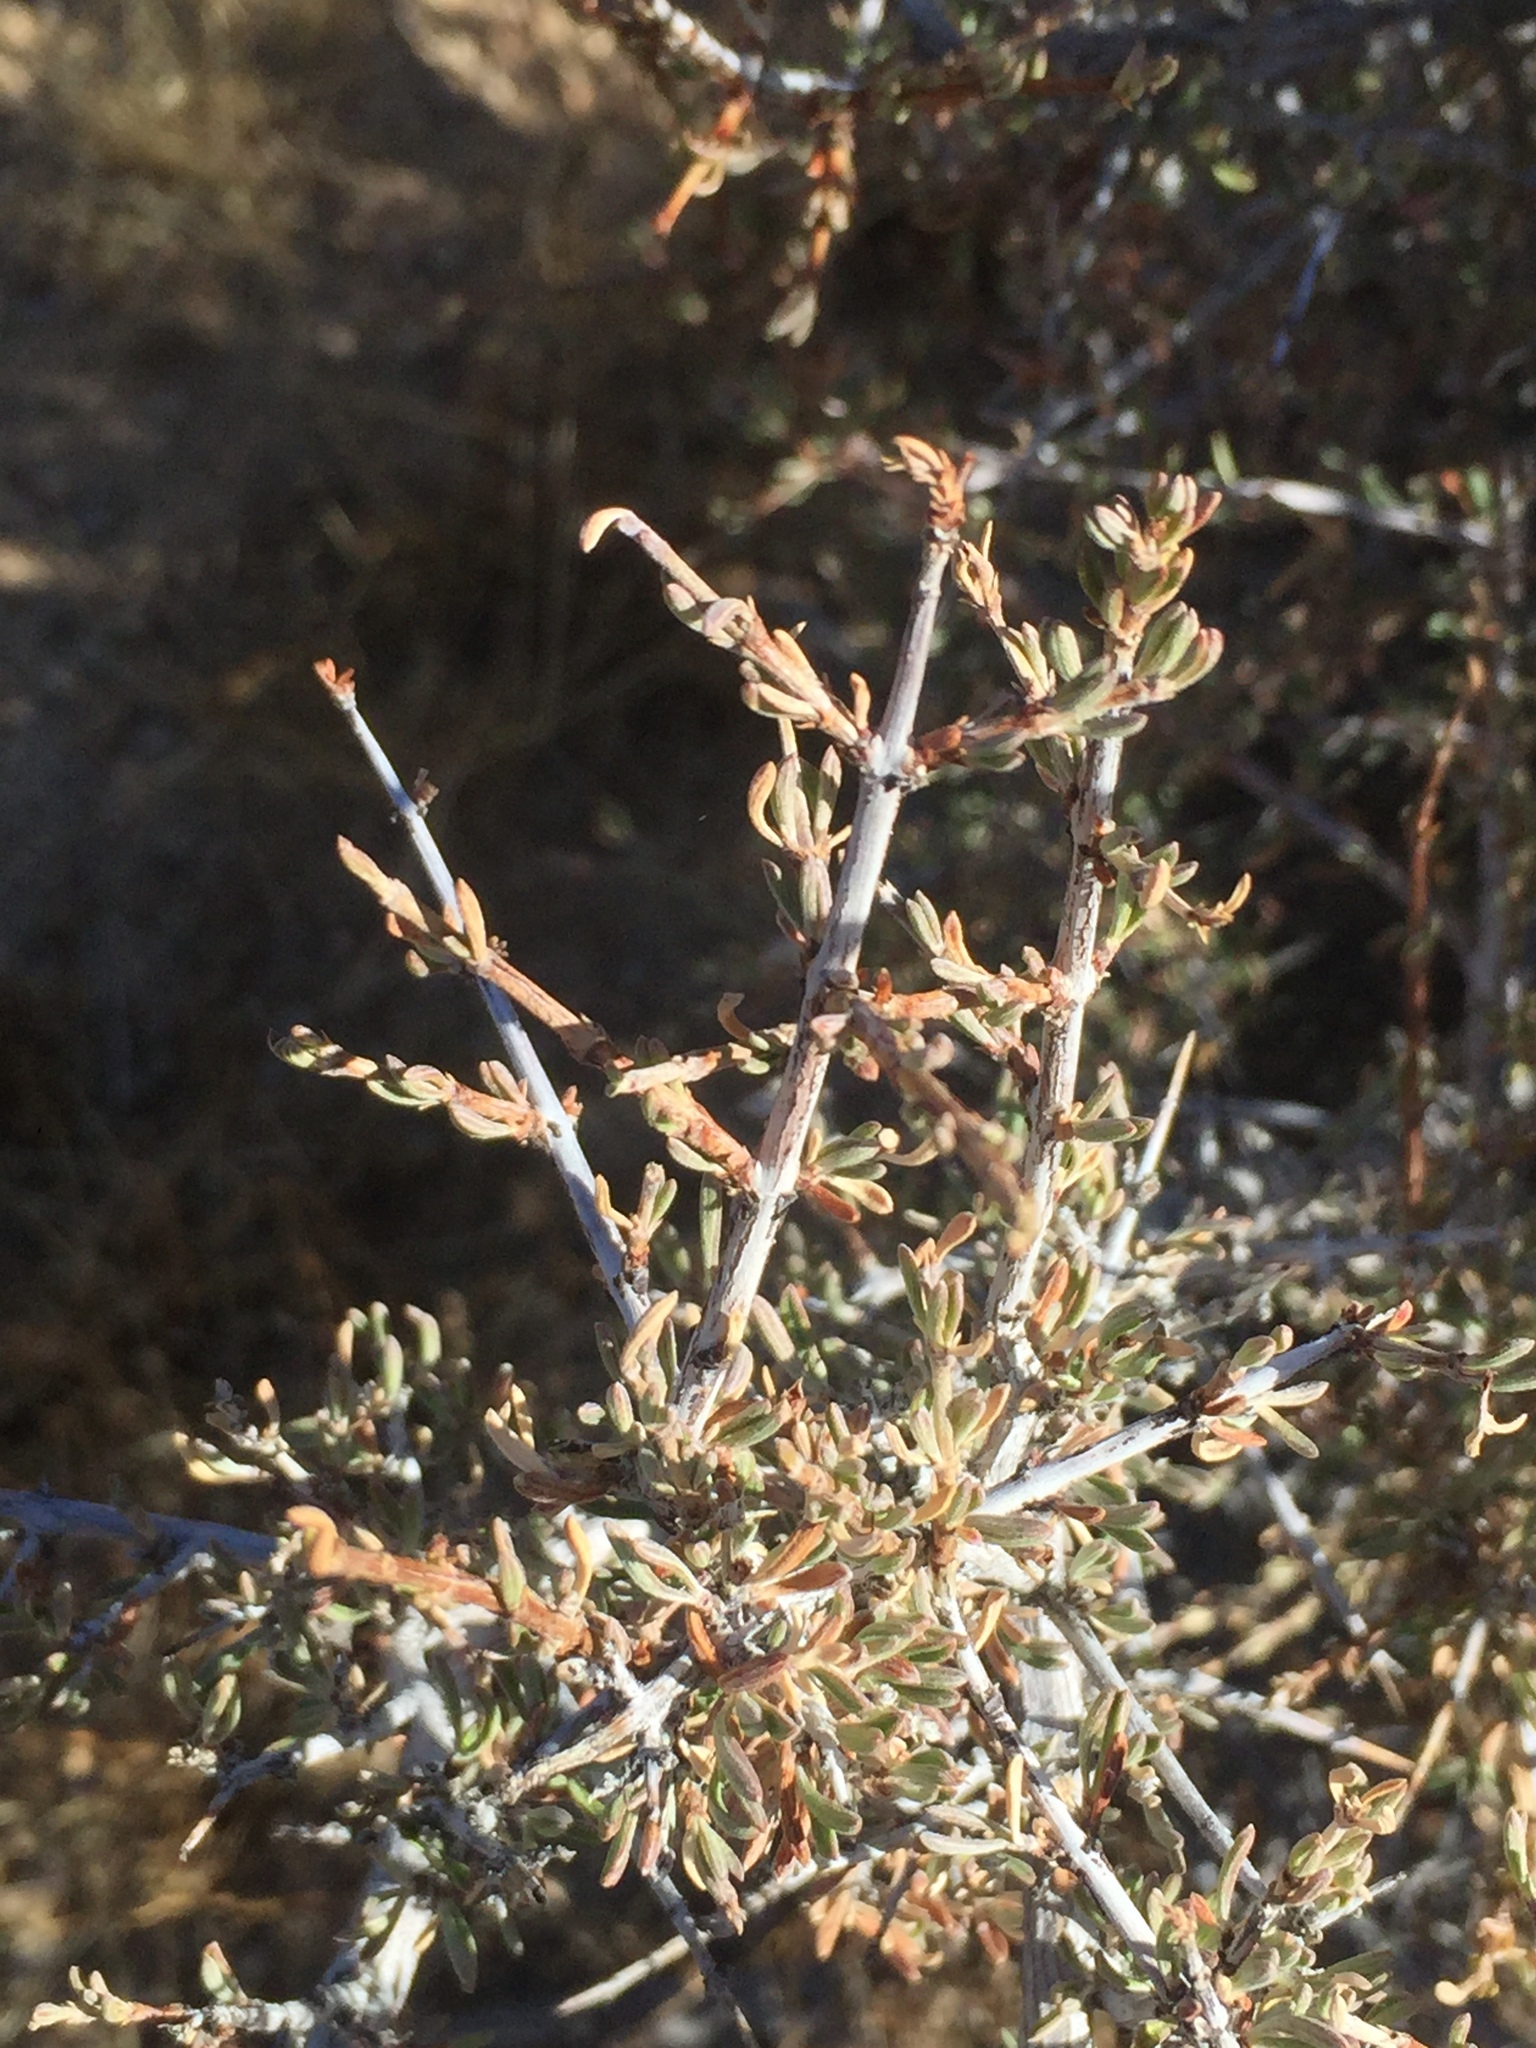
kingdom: Plantae
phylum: Tracheophyta
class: Magnoliopsida
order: Rosales
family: Rosaceae
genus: Coleogyne
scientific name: Coleogyne ramosissima
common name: Blackbrush
